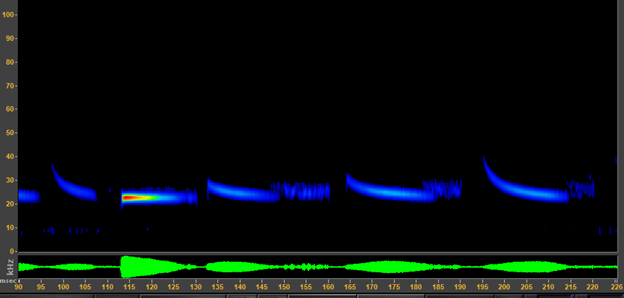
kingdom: Animalia
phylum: Chordata
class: Mammalia
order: Chiroptera
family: Molossidae
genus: Tadarida
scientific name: Tadarida brasiliensis
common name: Mexican free-tailed bat
